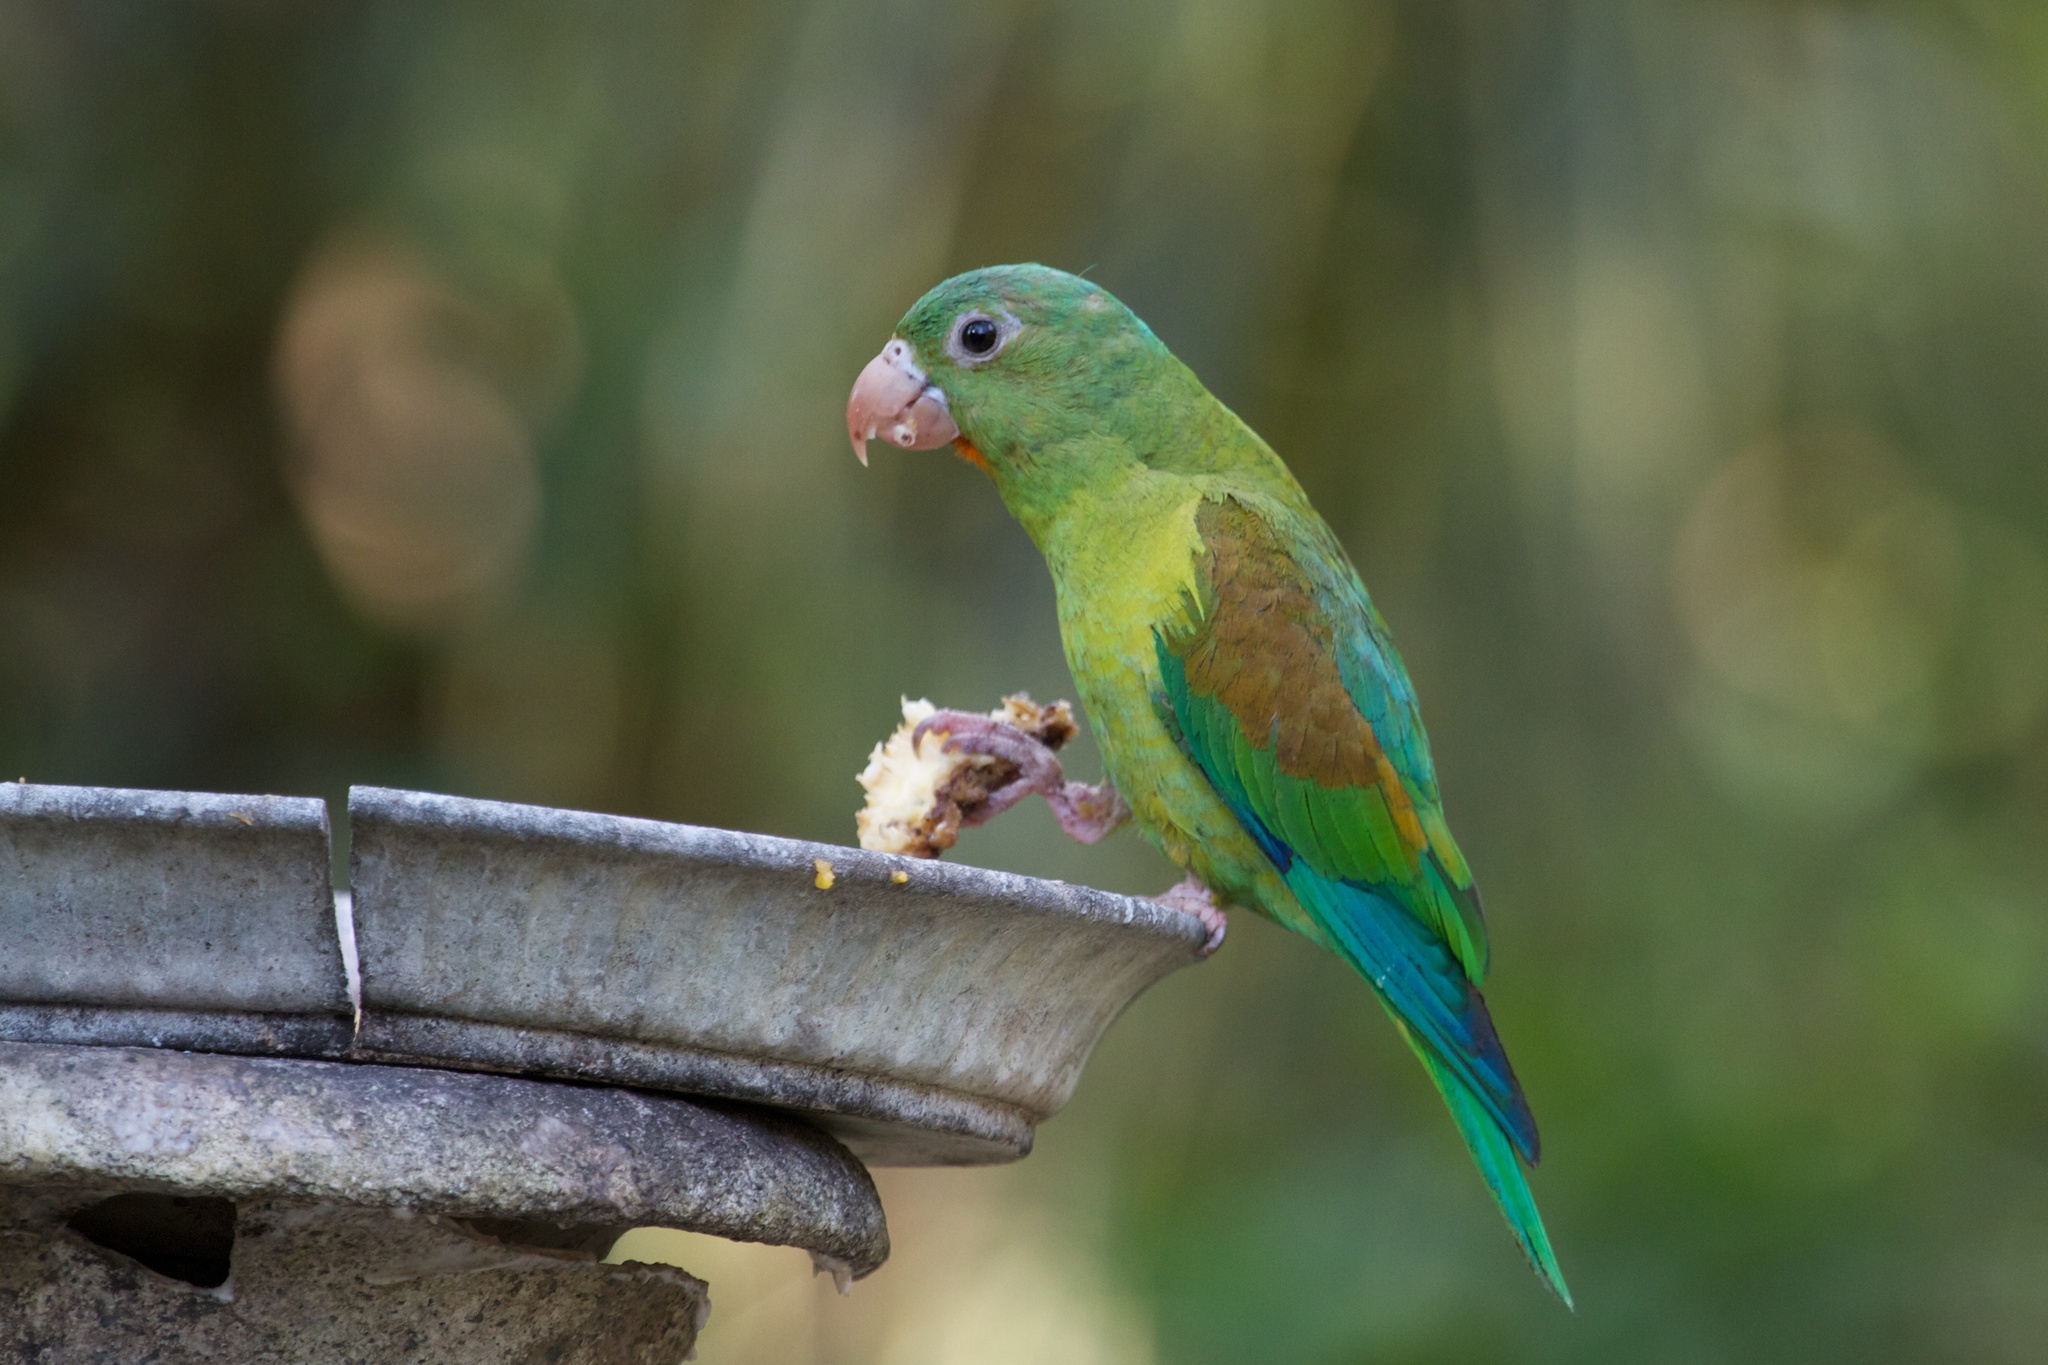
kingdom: Animalia
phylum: Chordata
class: Aves
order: Psittaciformes
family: Psittacidae
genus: Brotogeris
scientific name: Brotogeris jugularis
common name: Orange-chinned parakeet
